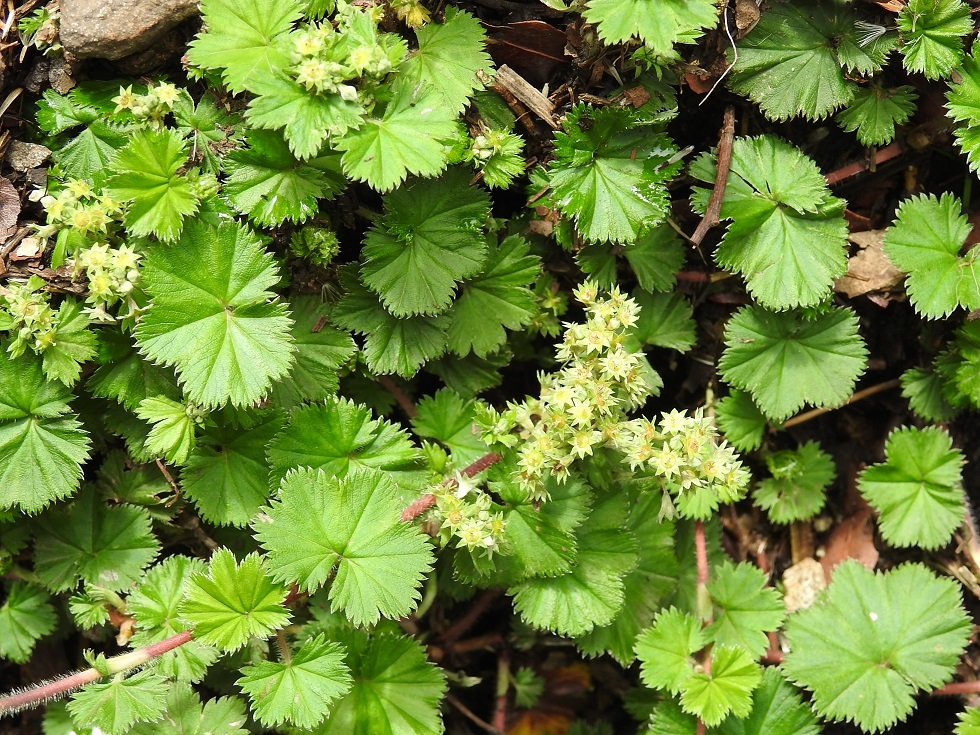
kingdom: Plantae
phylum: Tracheophyta
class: Magnoliopsida
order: Rosales
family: Rosaceae
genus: Lachemilla
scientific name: Lachemilla pectinata
